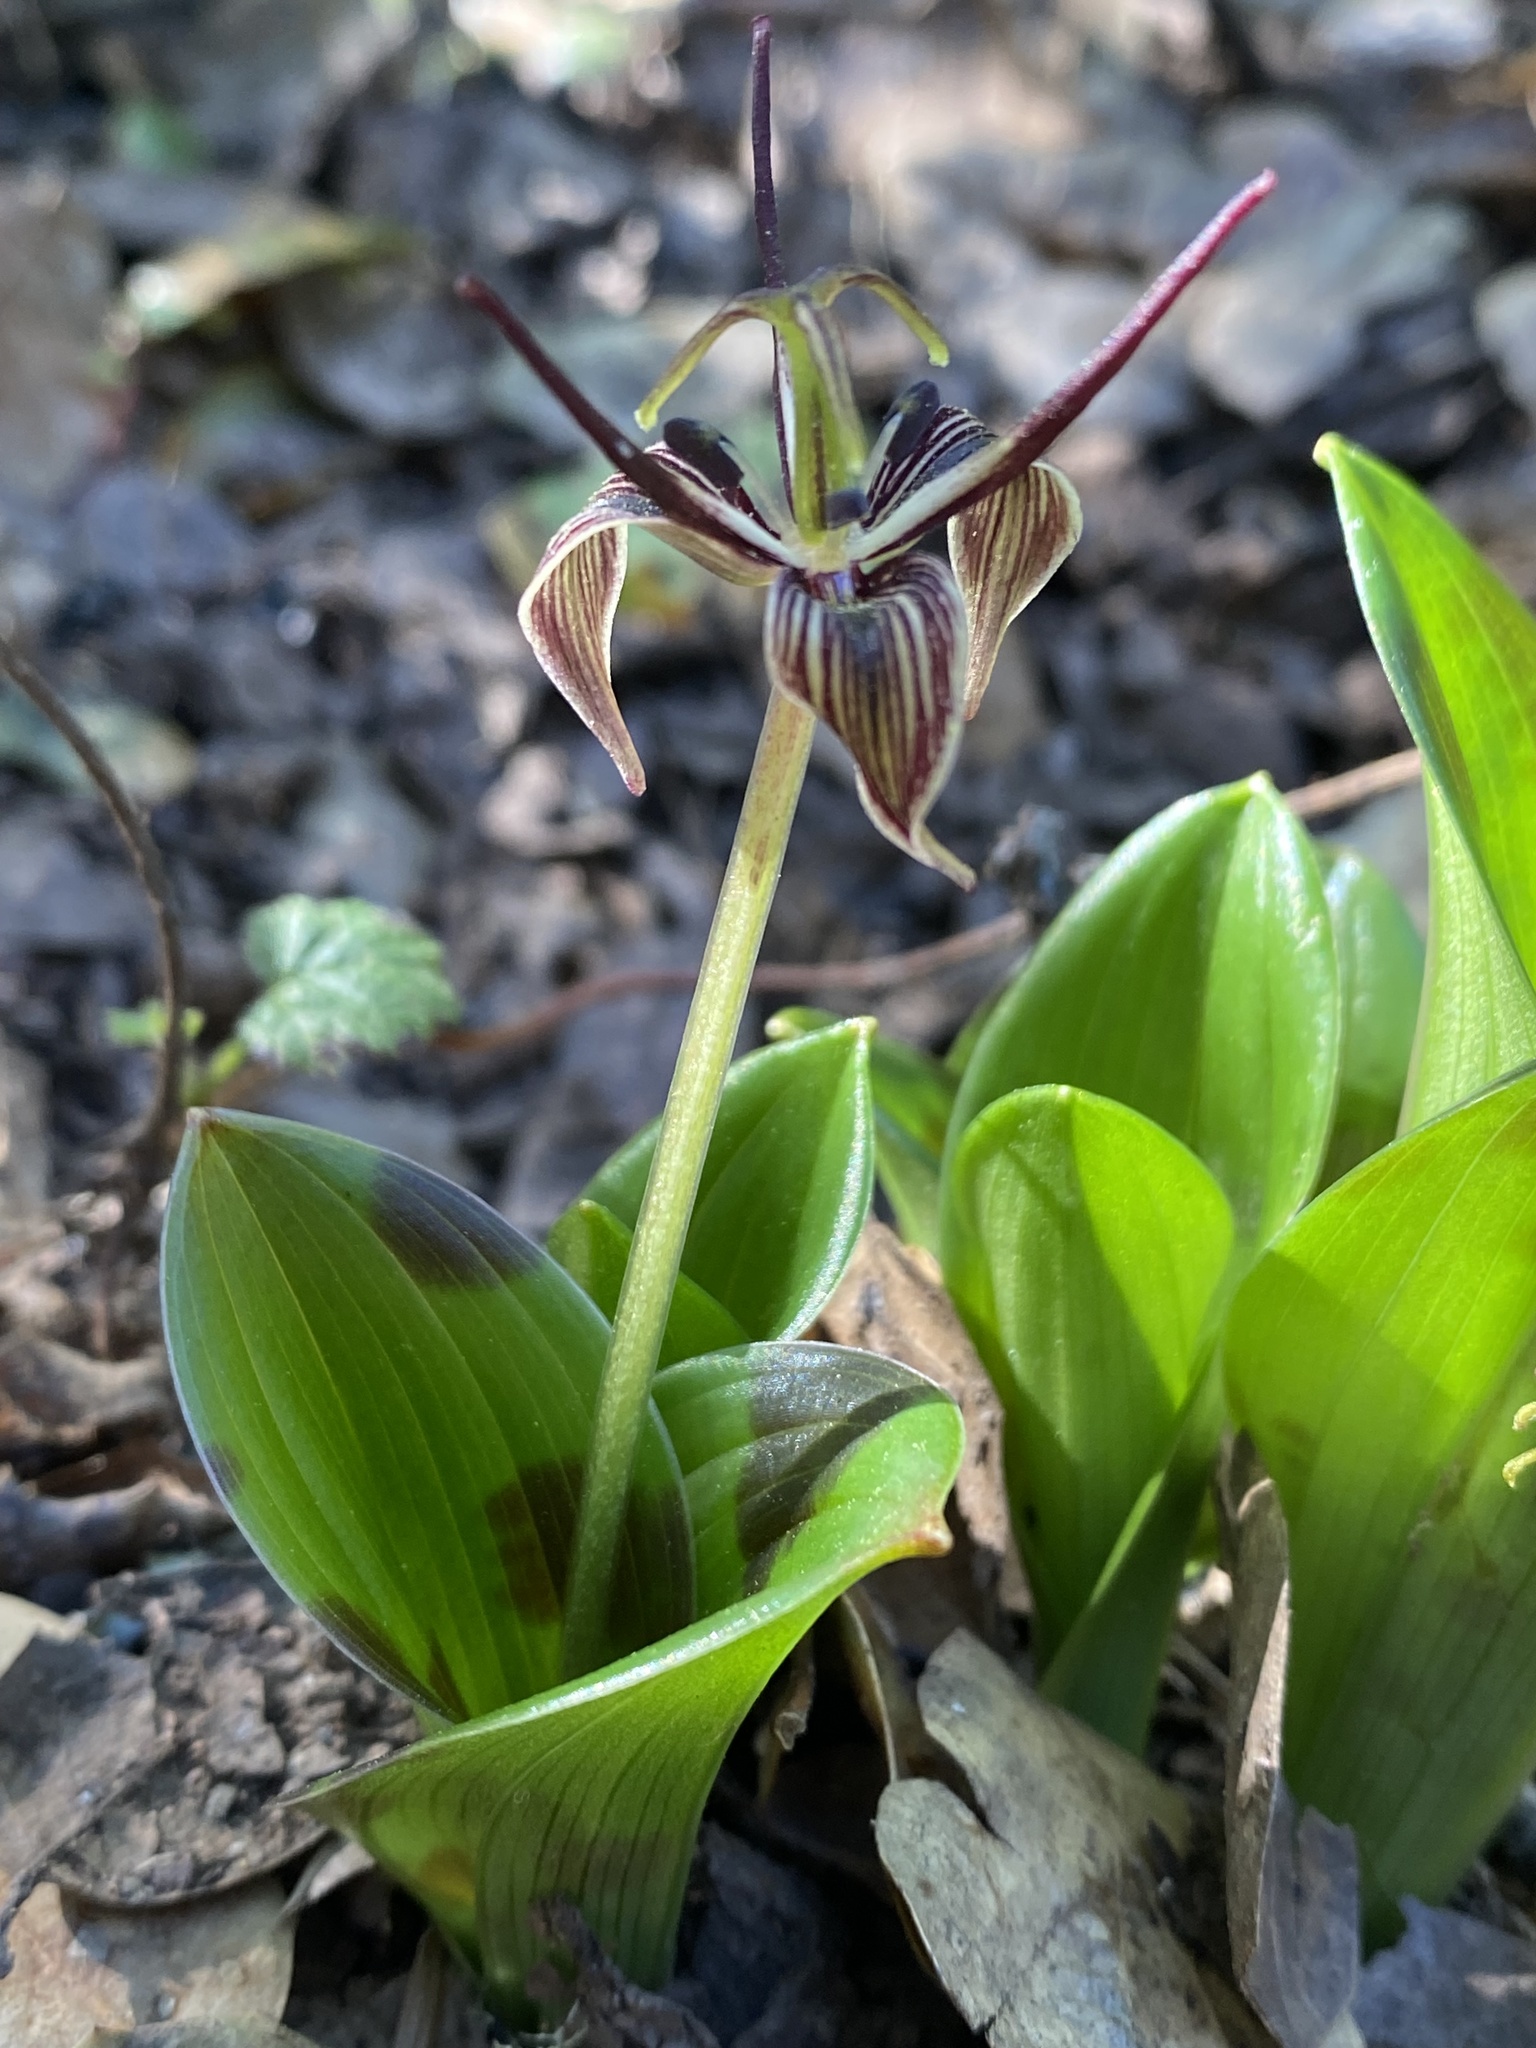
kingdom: Plantae
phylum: Tracheophyta
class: Liliopsida
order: Liliales
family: Liliaceae
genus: Scoliopus
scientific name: Scoliopus bigelovii
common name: Foetid adder's-tongue
